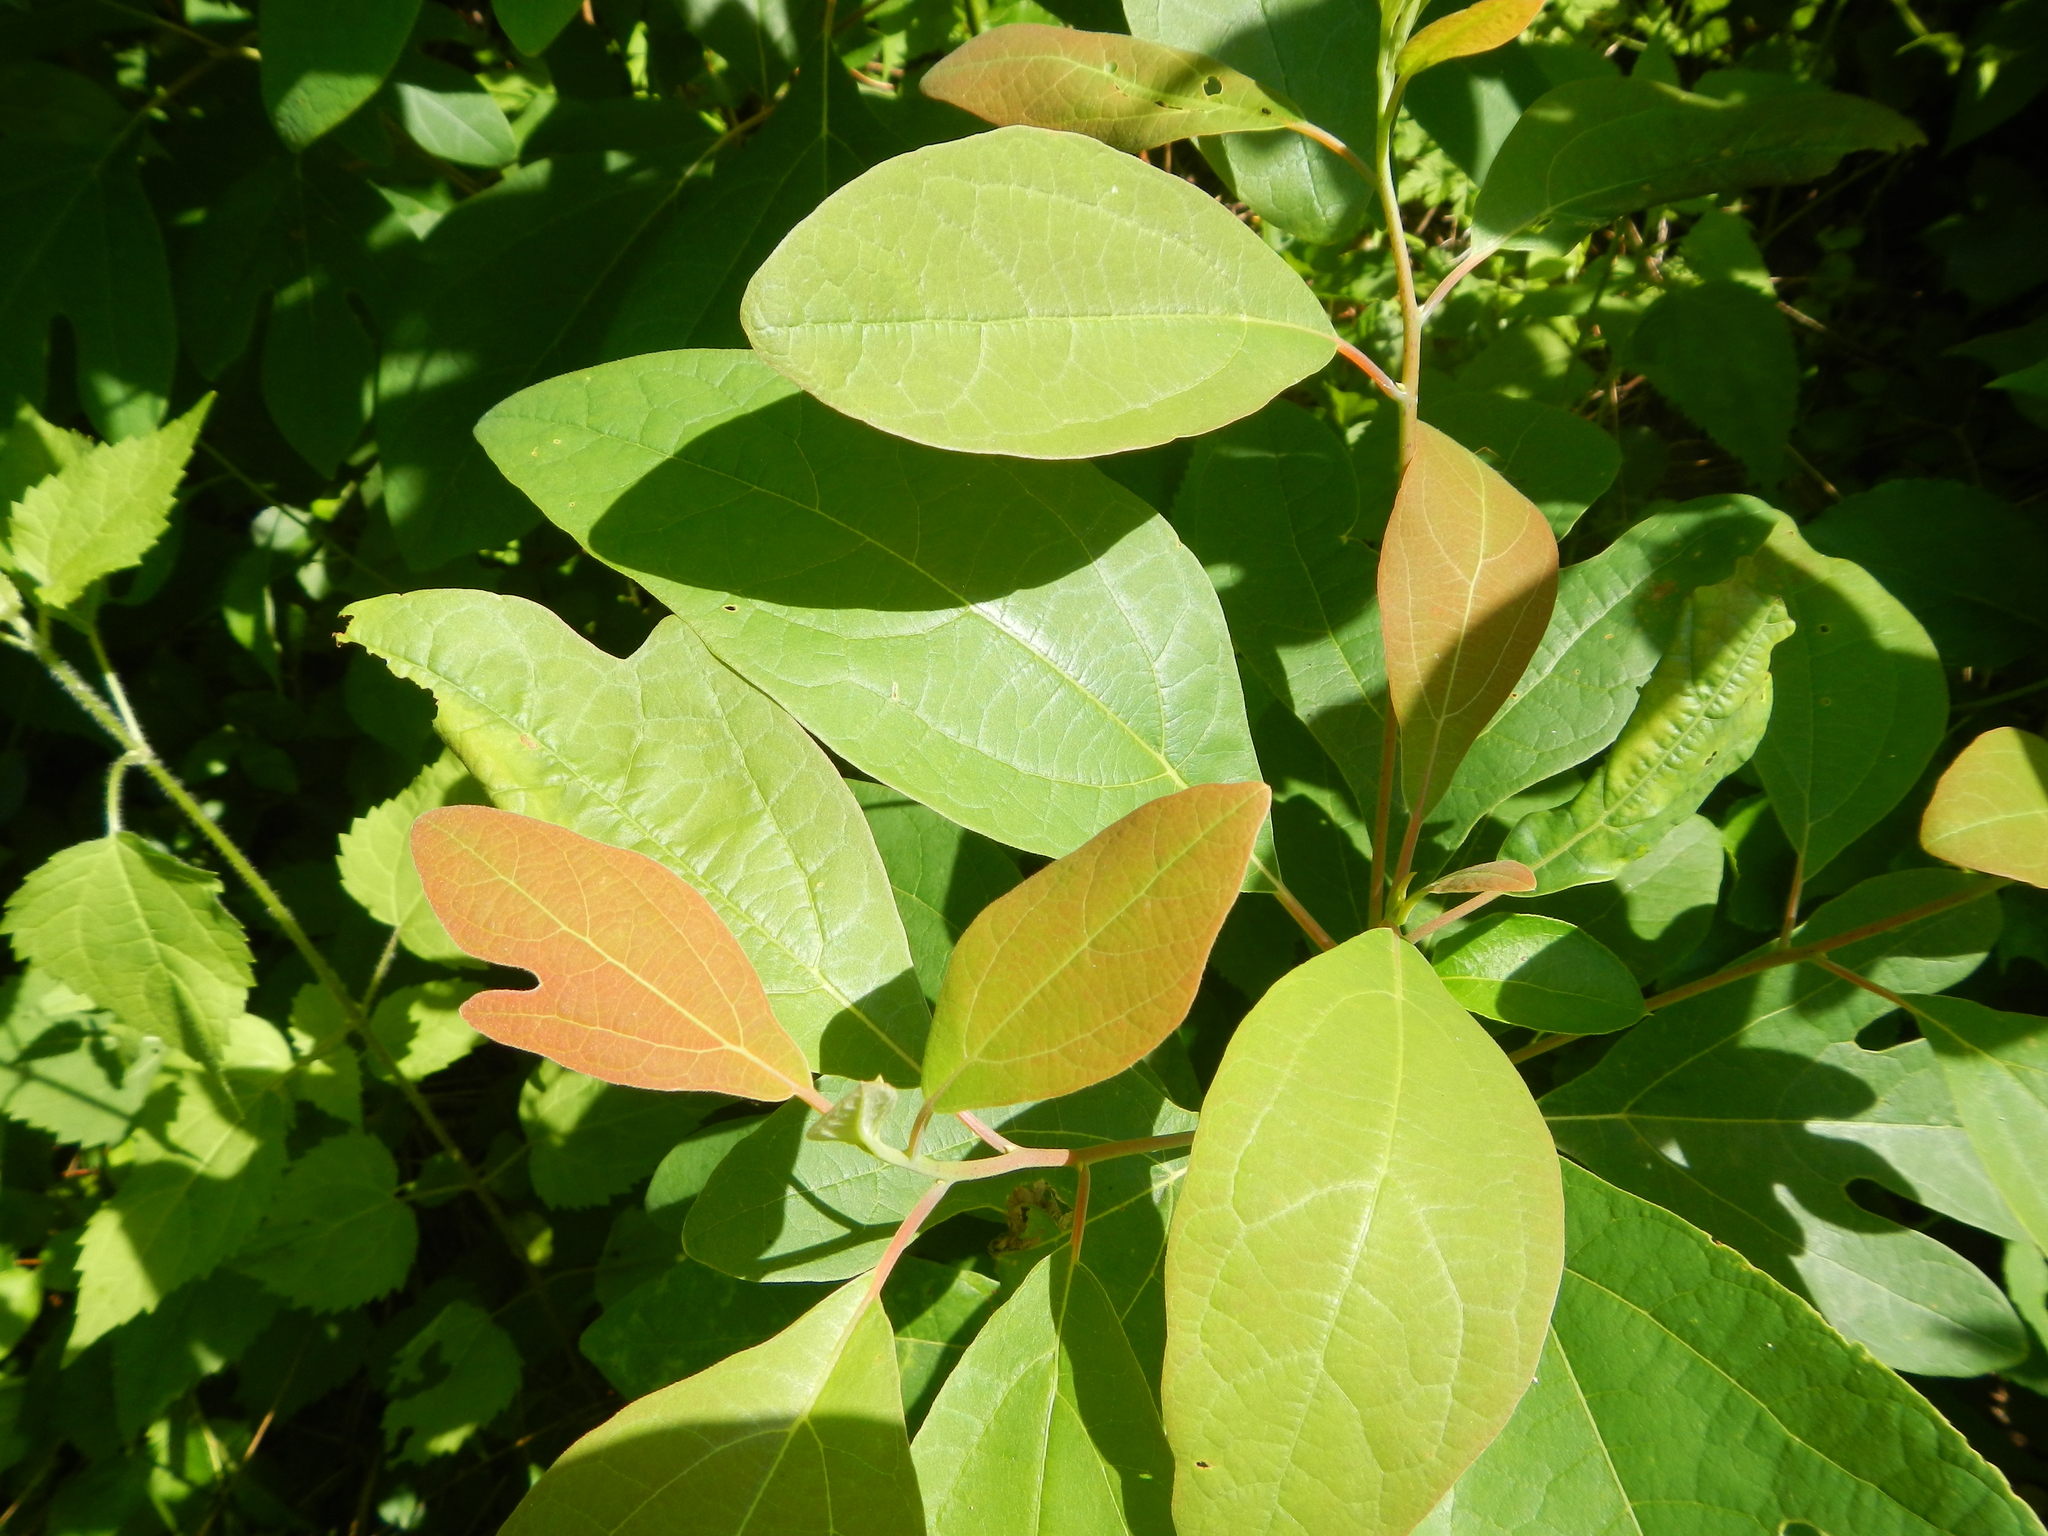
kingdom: Plantae
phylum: Tracheophyta
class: Magnoliopsida
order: Laurales
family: Lauraceae
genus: Sassafras
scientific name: Sassafras albidum
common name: Sassafras
